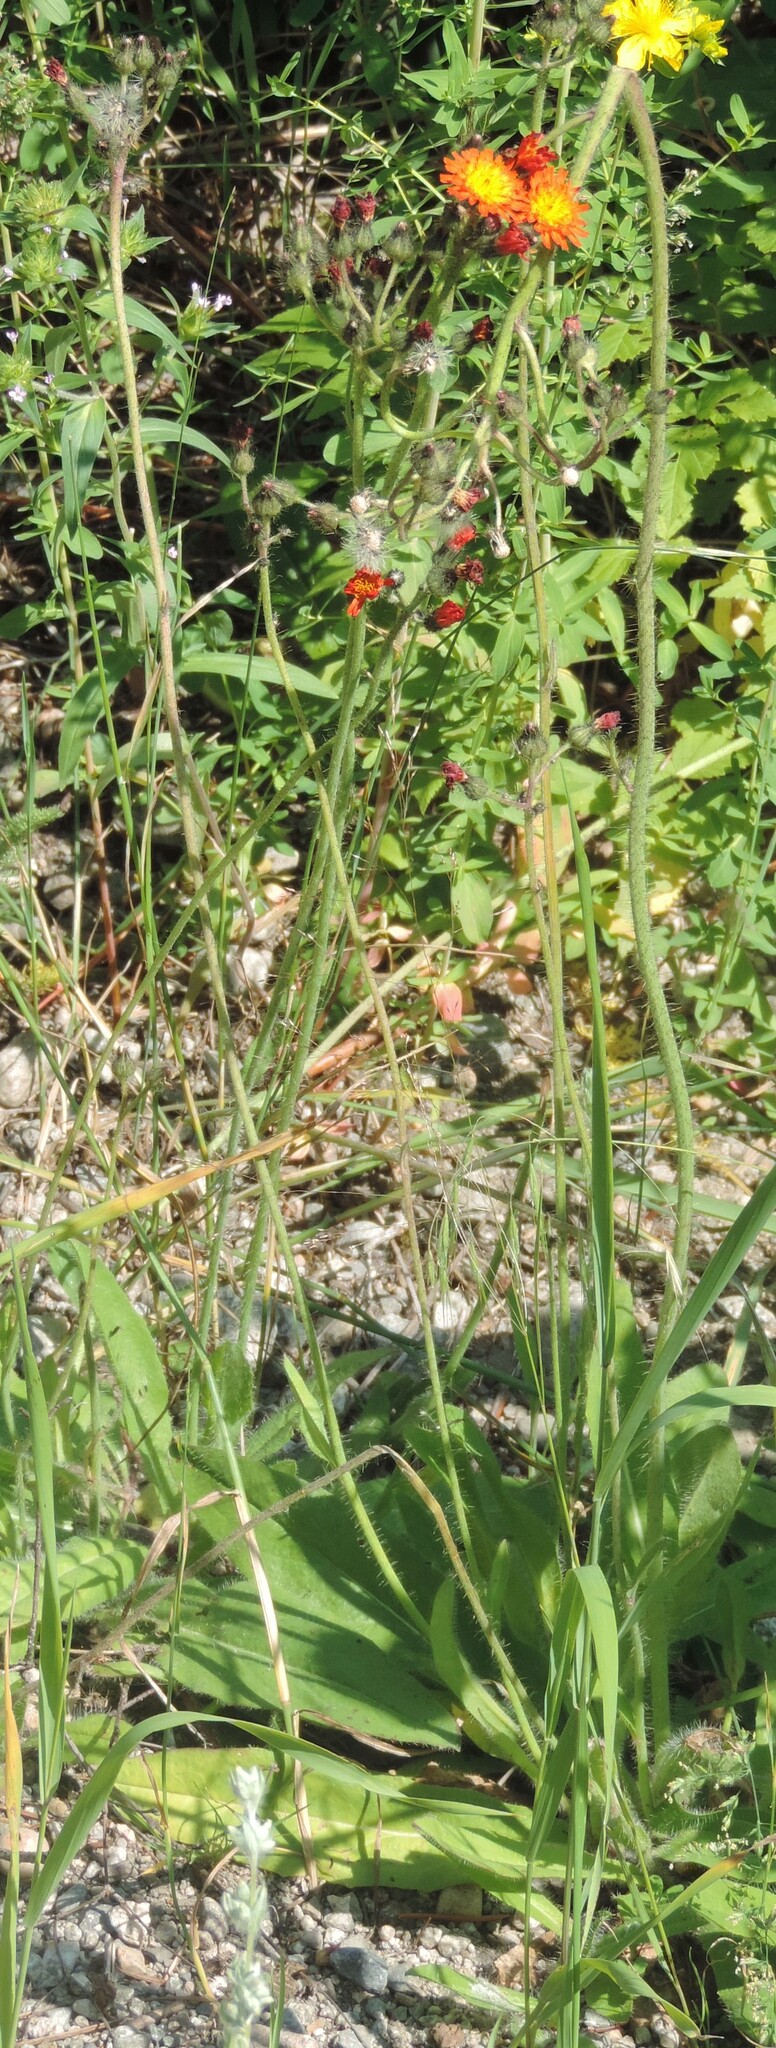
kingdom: Plantae
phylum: Tracheophyta
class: Magnoliopsida
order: Asterales
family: Asteraceae
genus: Pilosella
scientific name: Pilosella aurantiaca
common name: Fox-and-cubs
